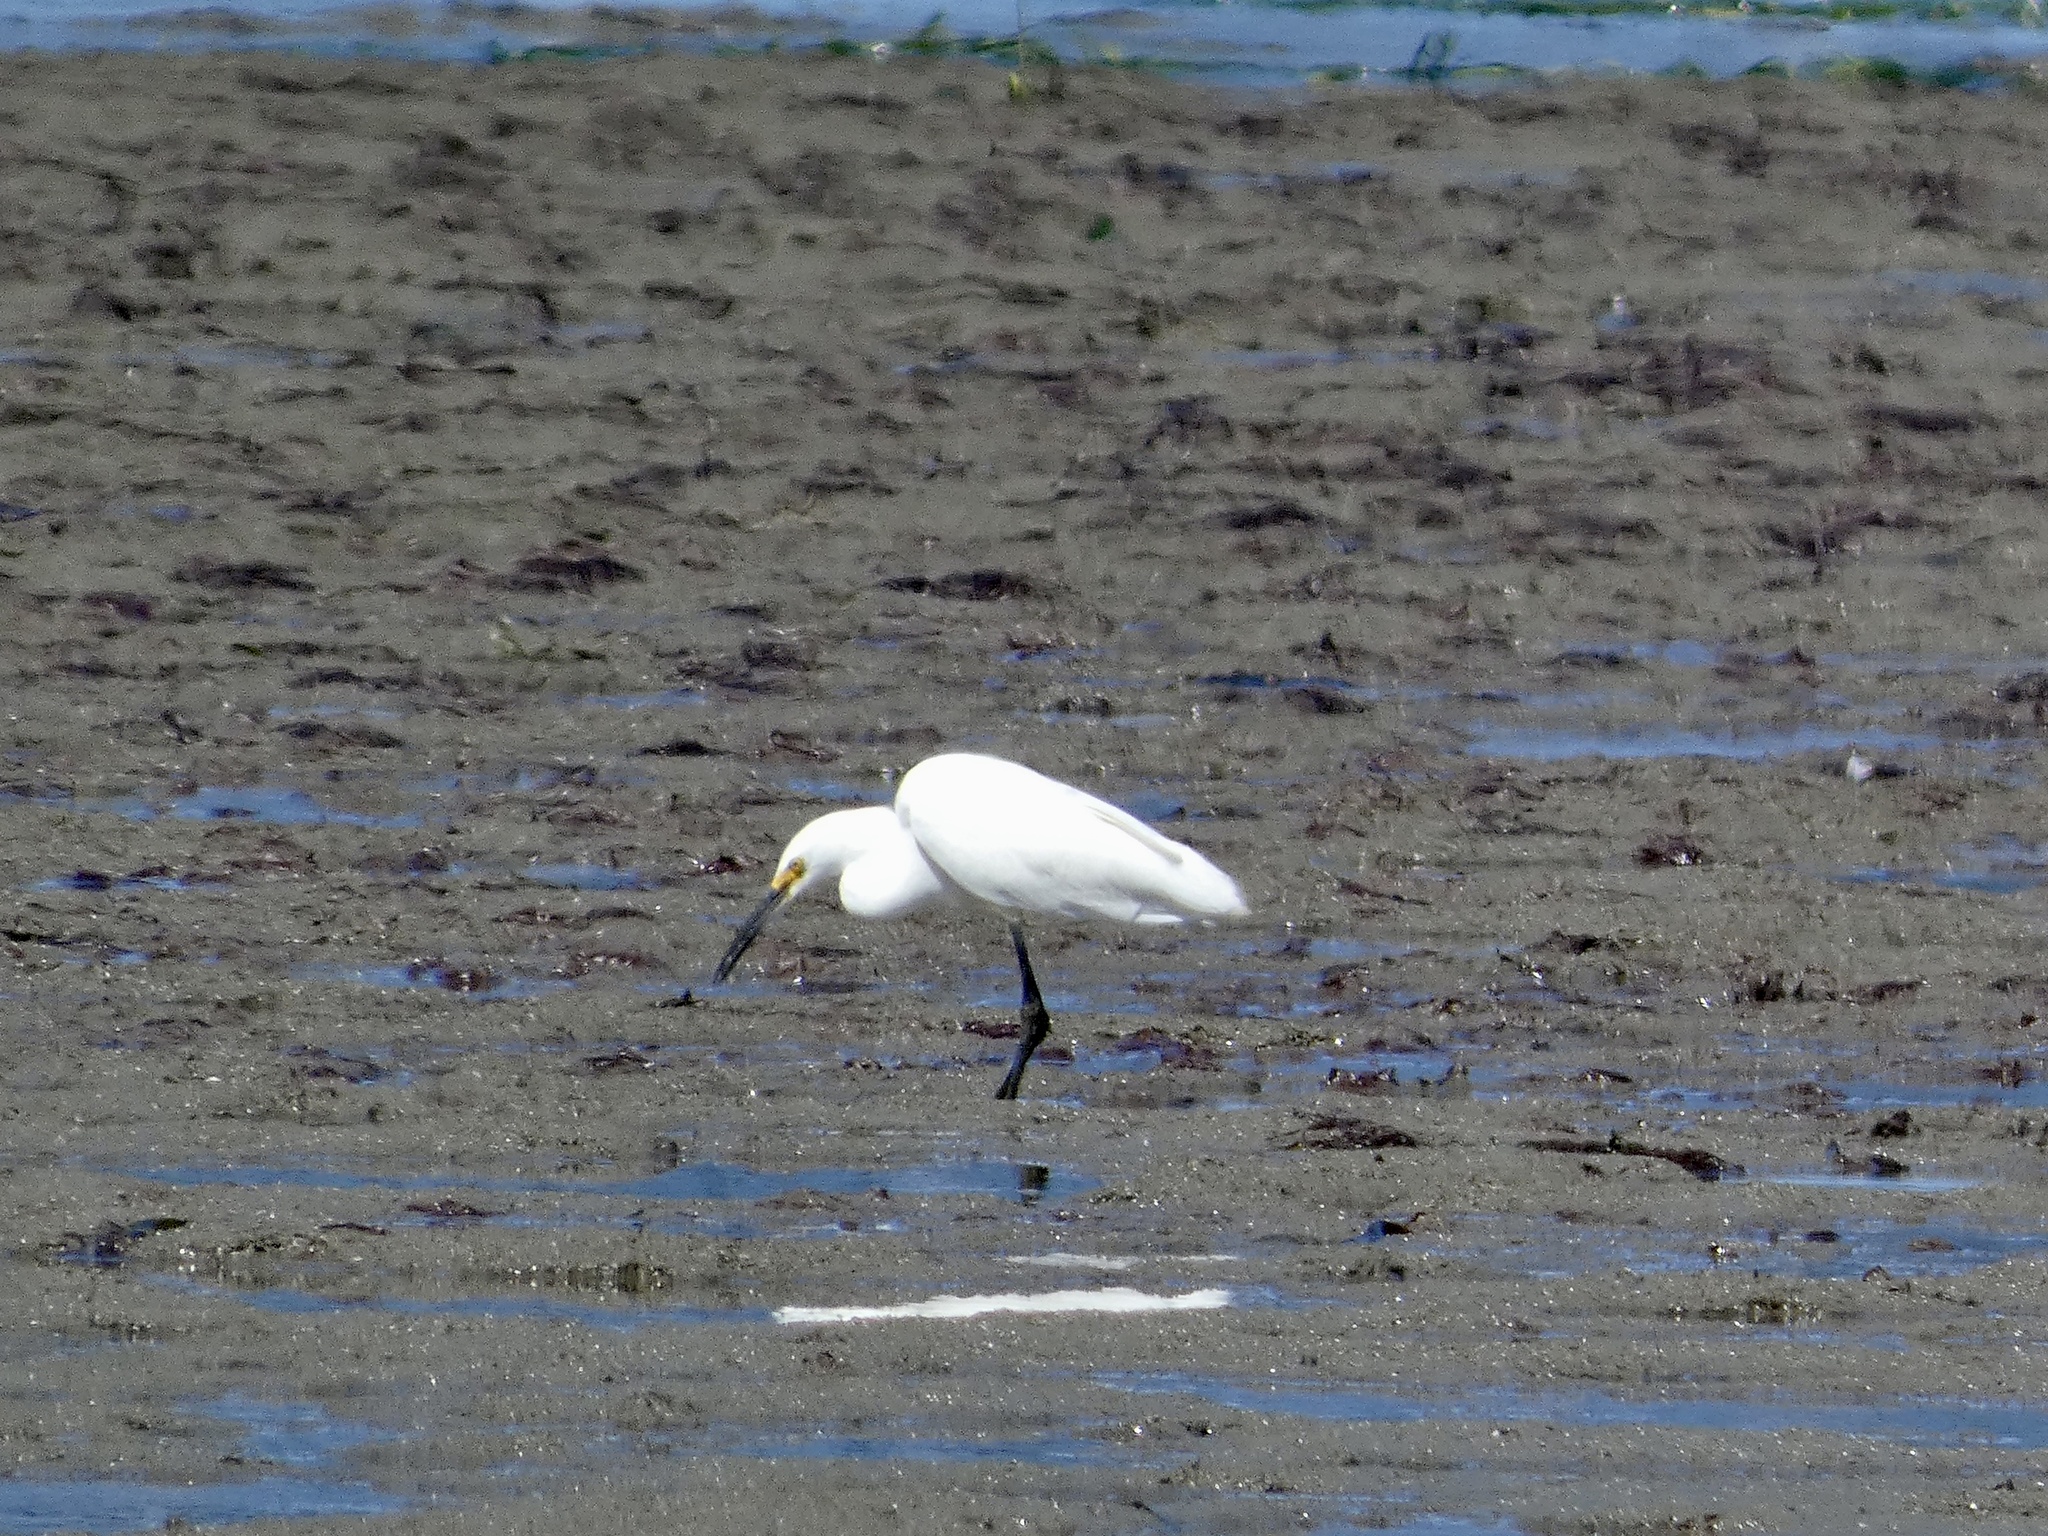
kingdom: Animalia
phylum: Chordata
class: Aves
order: Pelecaniformes
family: Ardeidae
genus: Egretta
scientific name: Egretta thula
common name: Snowy egret
